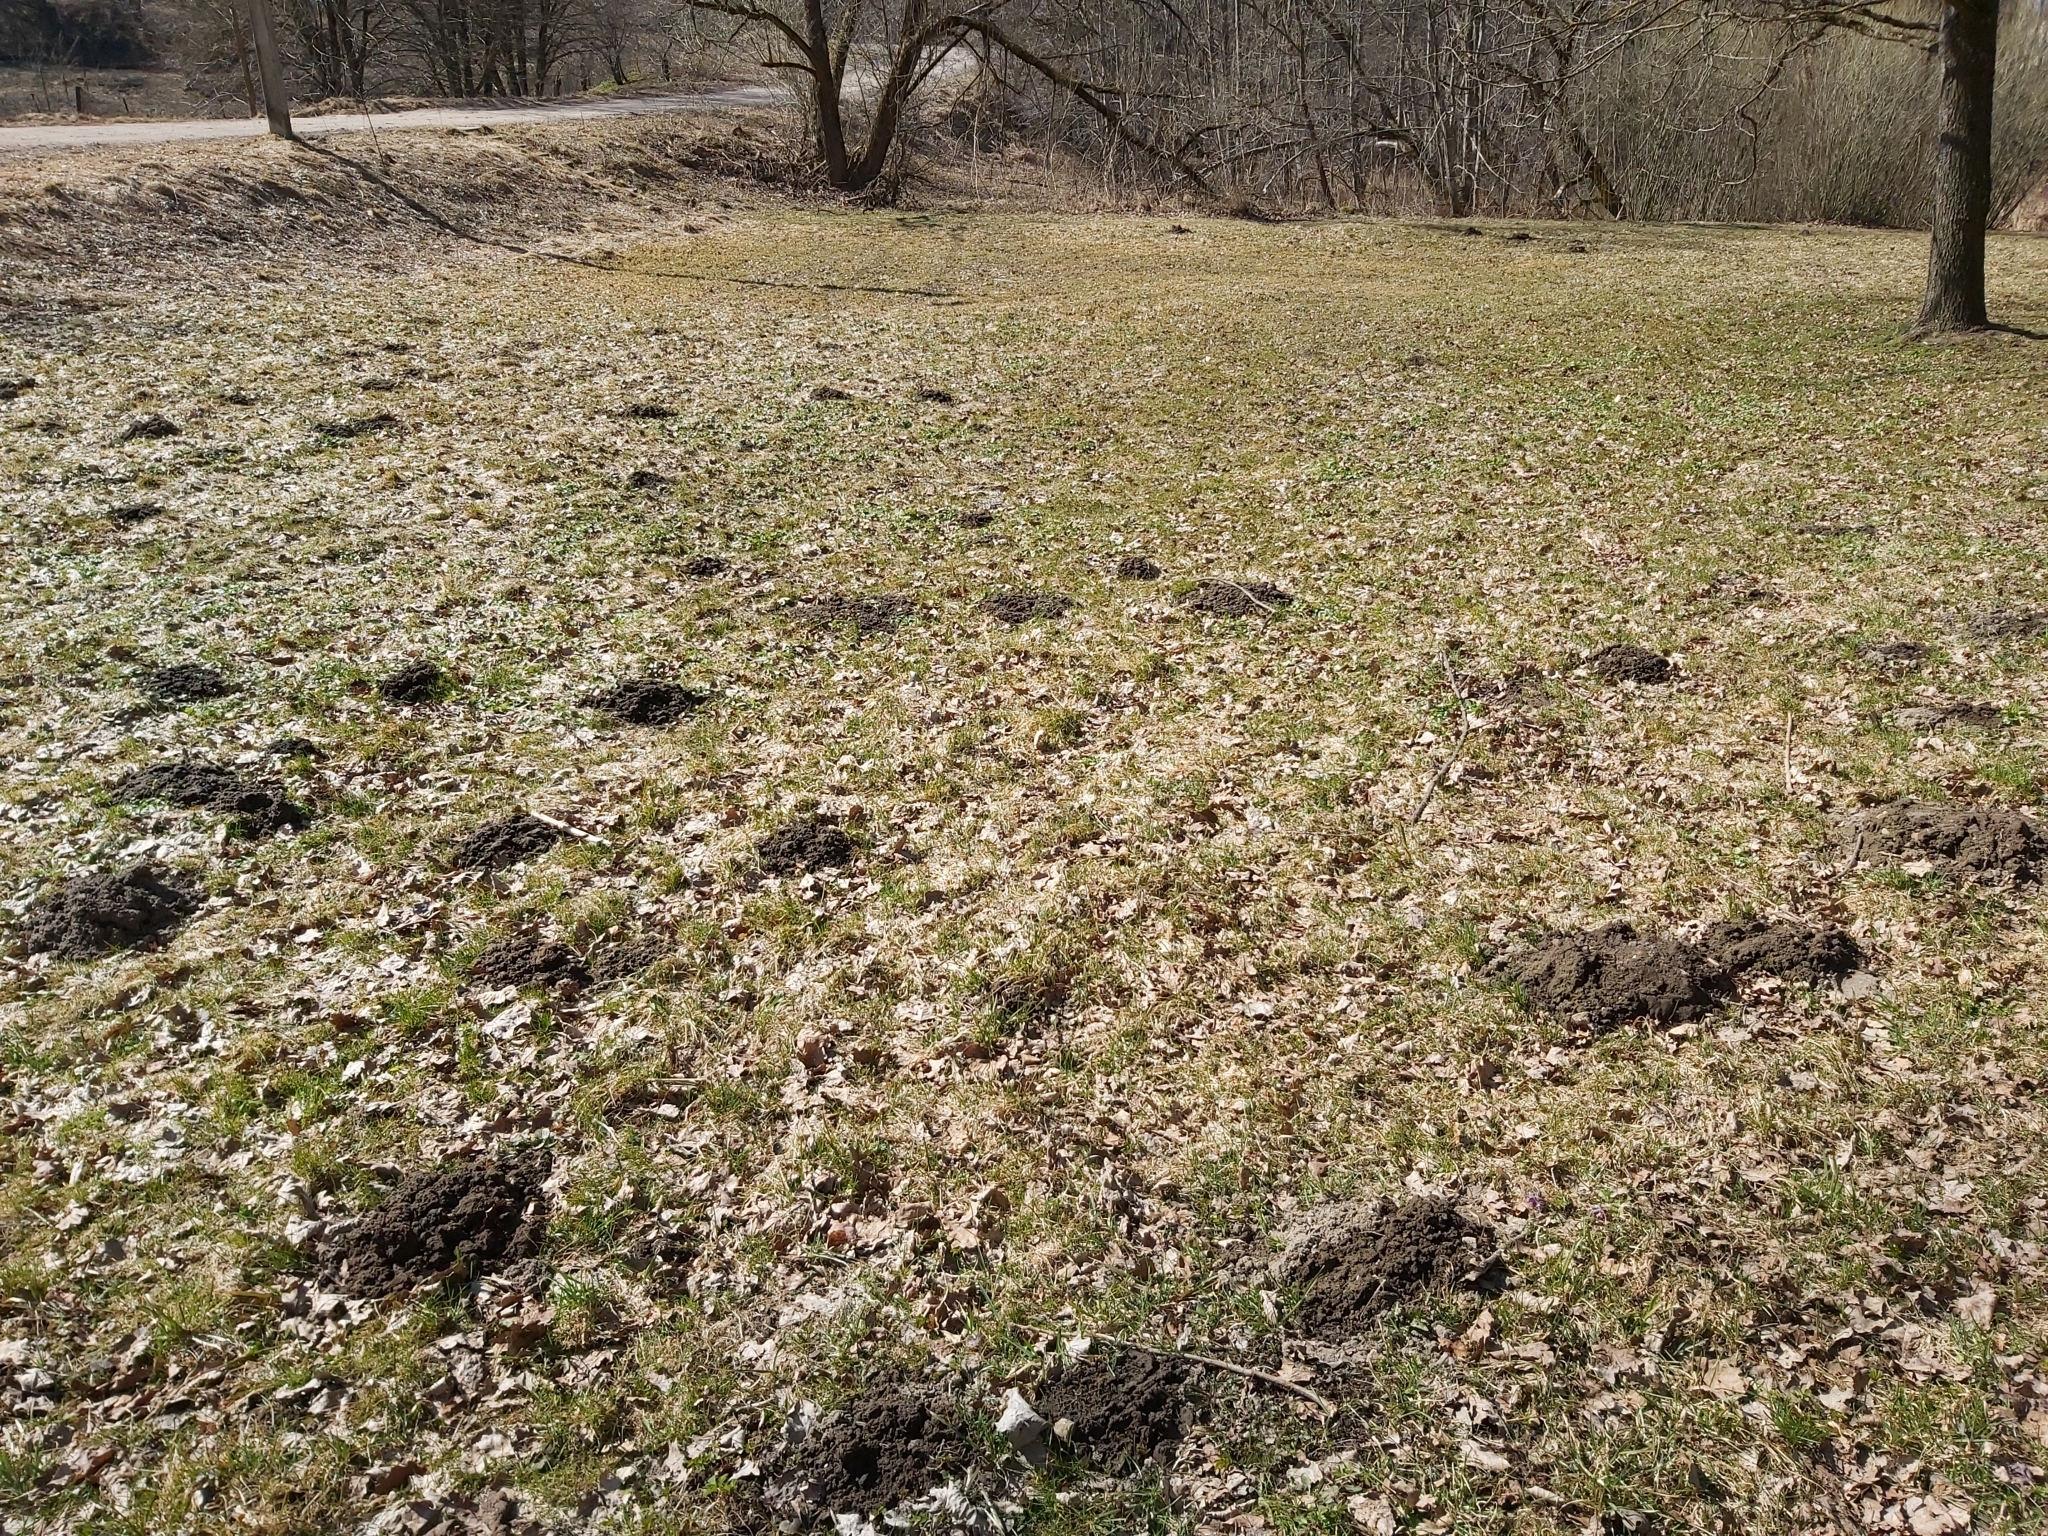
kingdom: Animalia
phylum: Chordata
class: Mammalia
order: Soricomorpha
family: Talpidae
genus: Talpa
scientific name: Talpa europaea
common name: European mole
